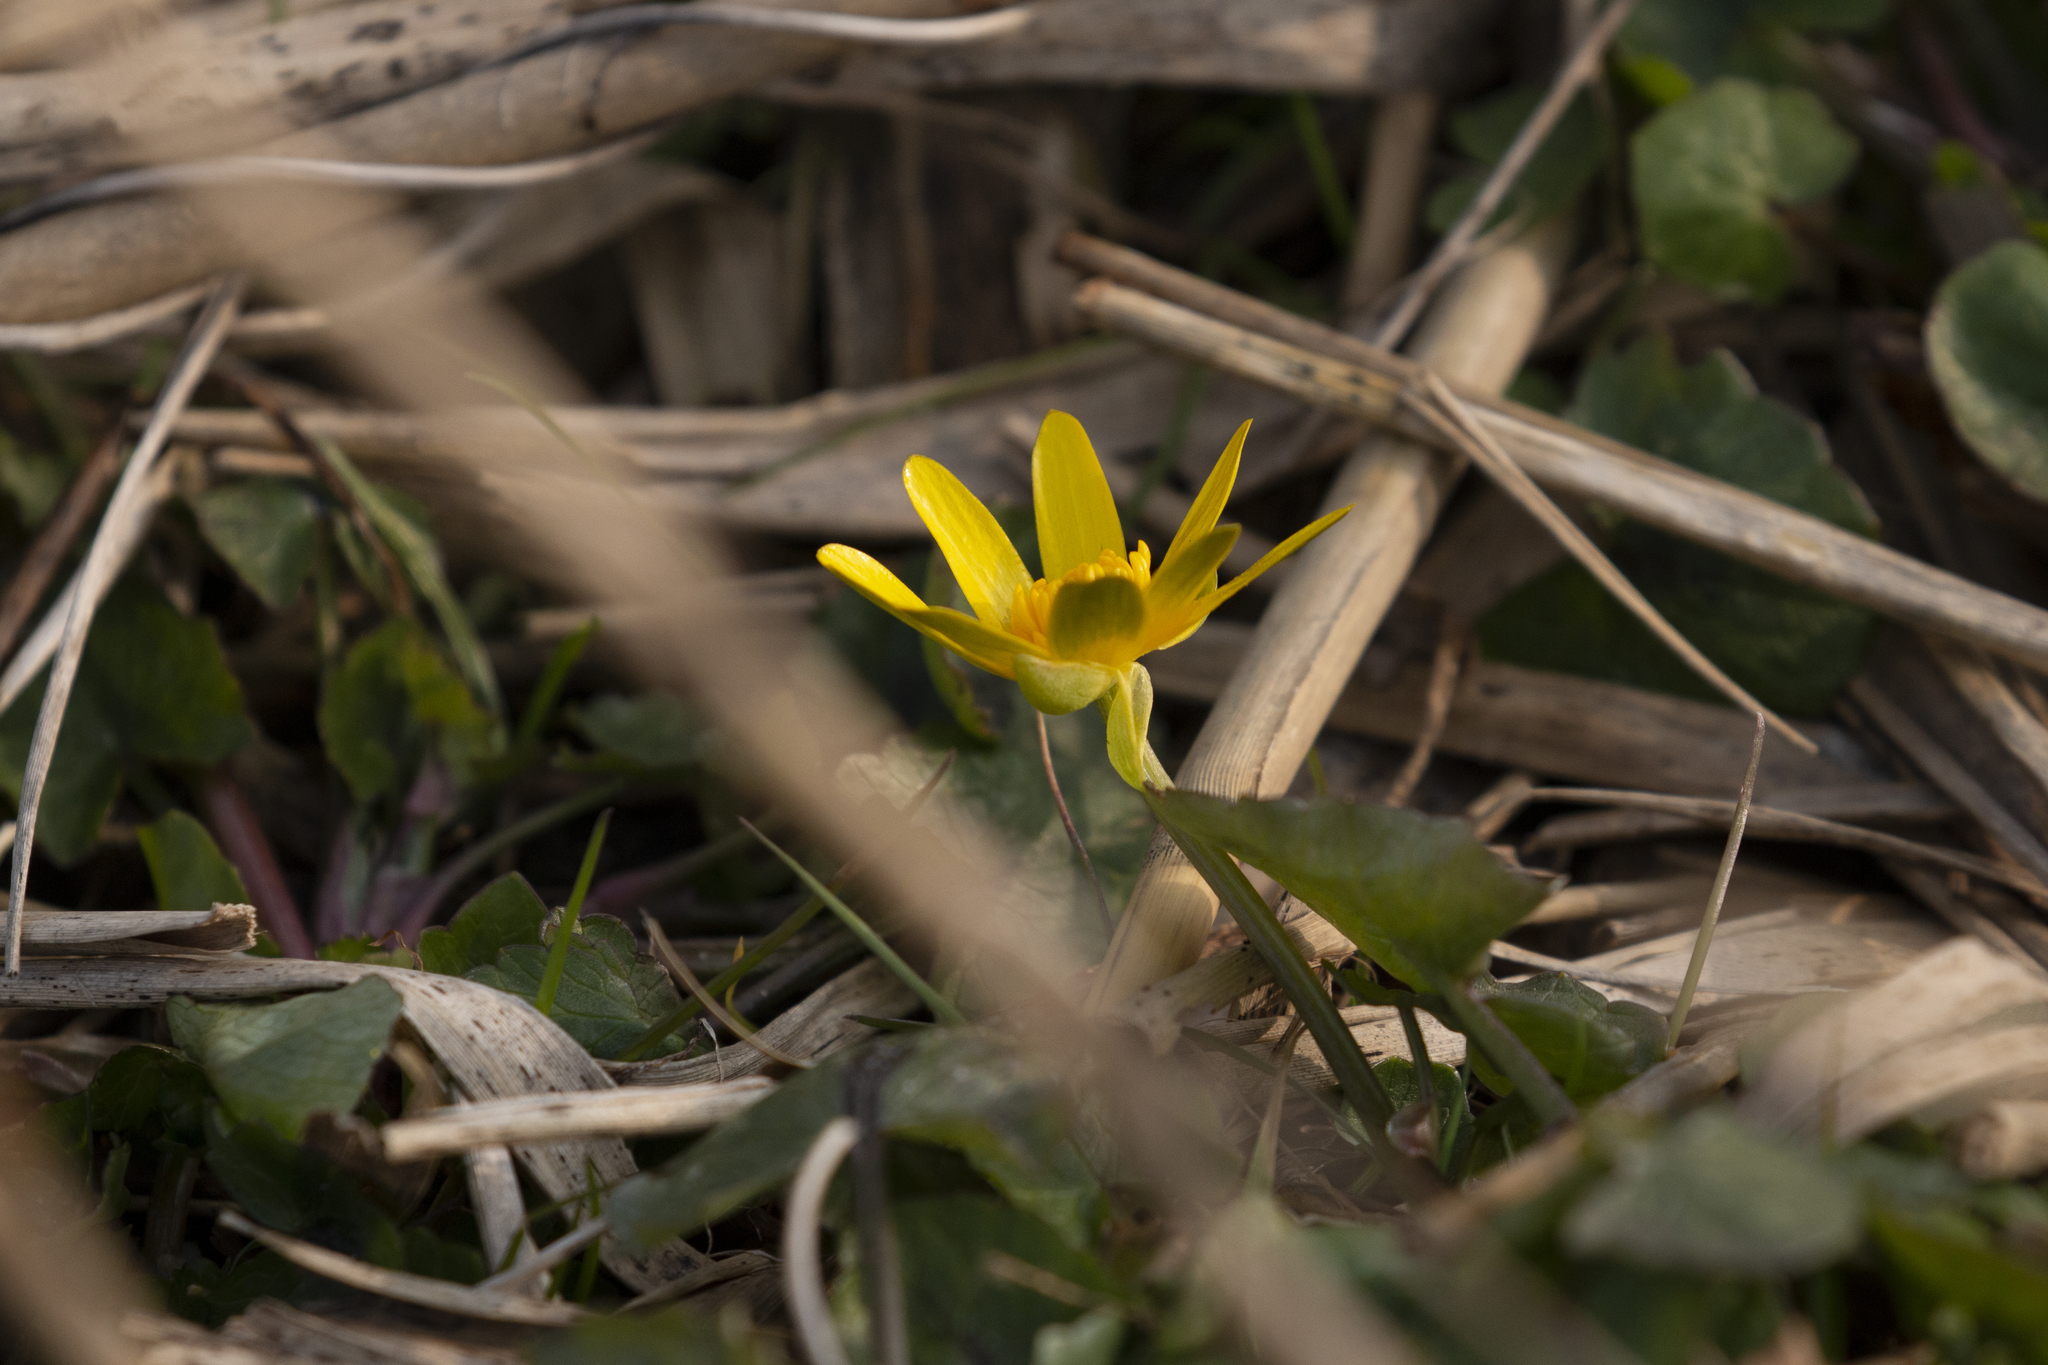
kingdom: Plantae
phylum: Tracheophyta
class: Magnoliopsida
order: Ranunculales
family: Ranunculaceae
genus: Ficaria
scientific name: Ficaria verna
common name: Lesser celandine
